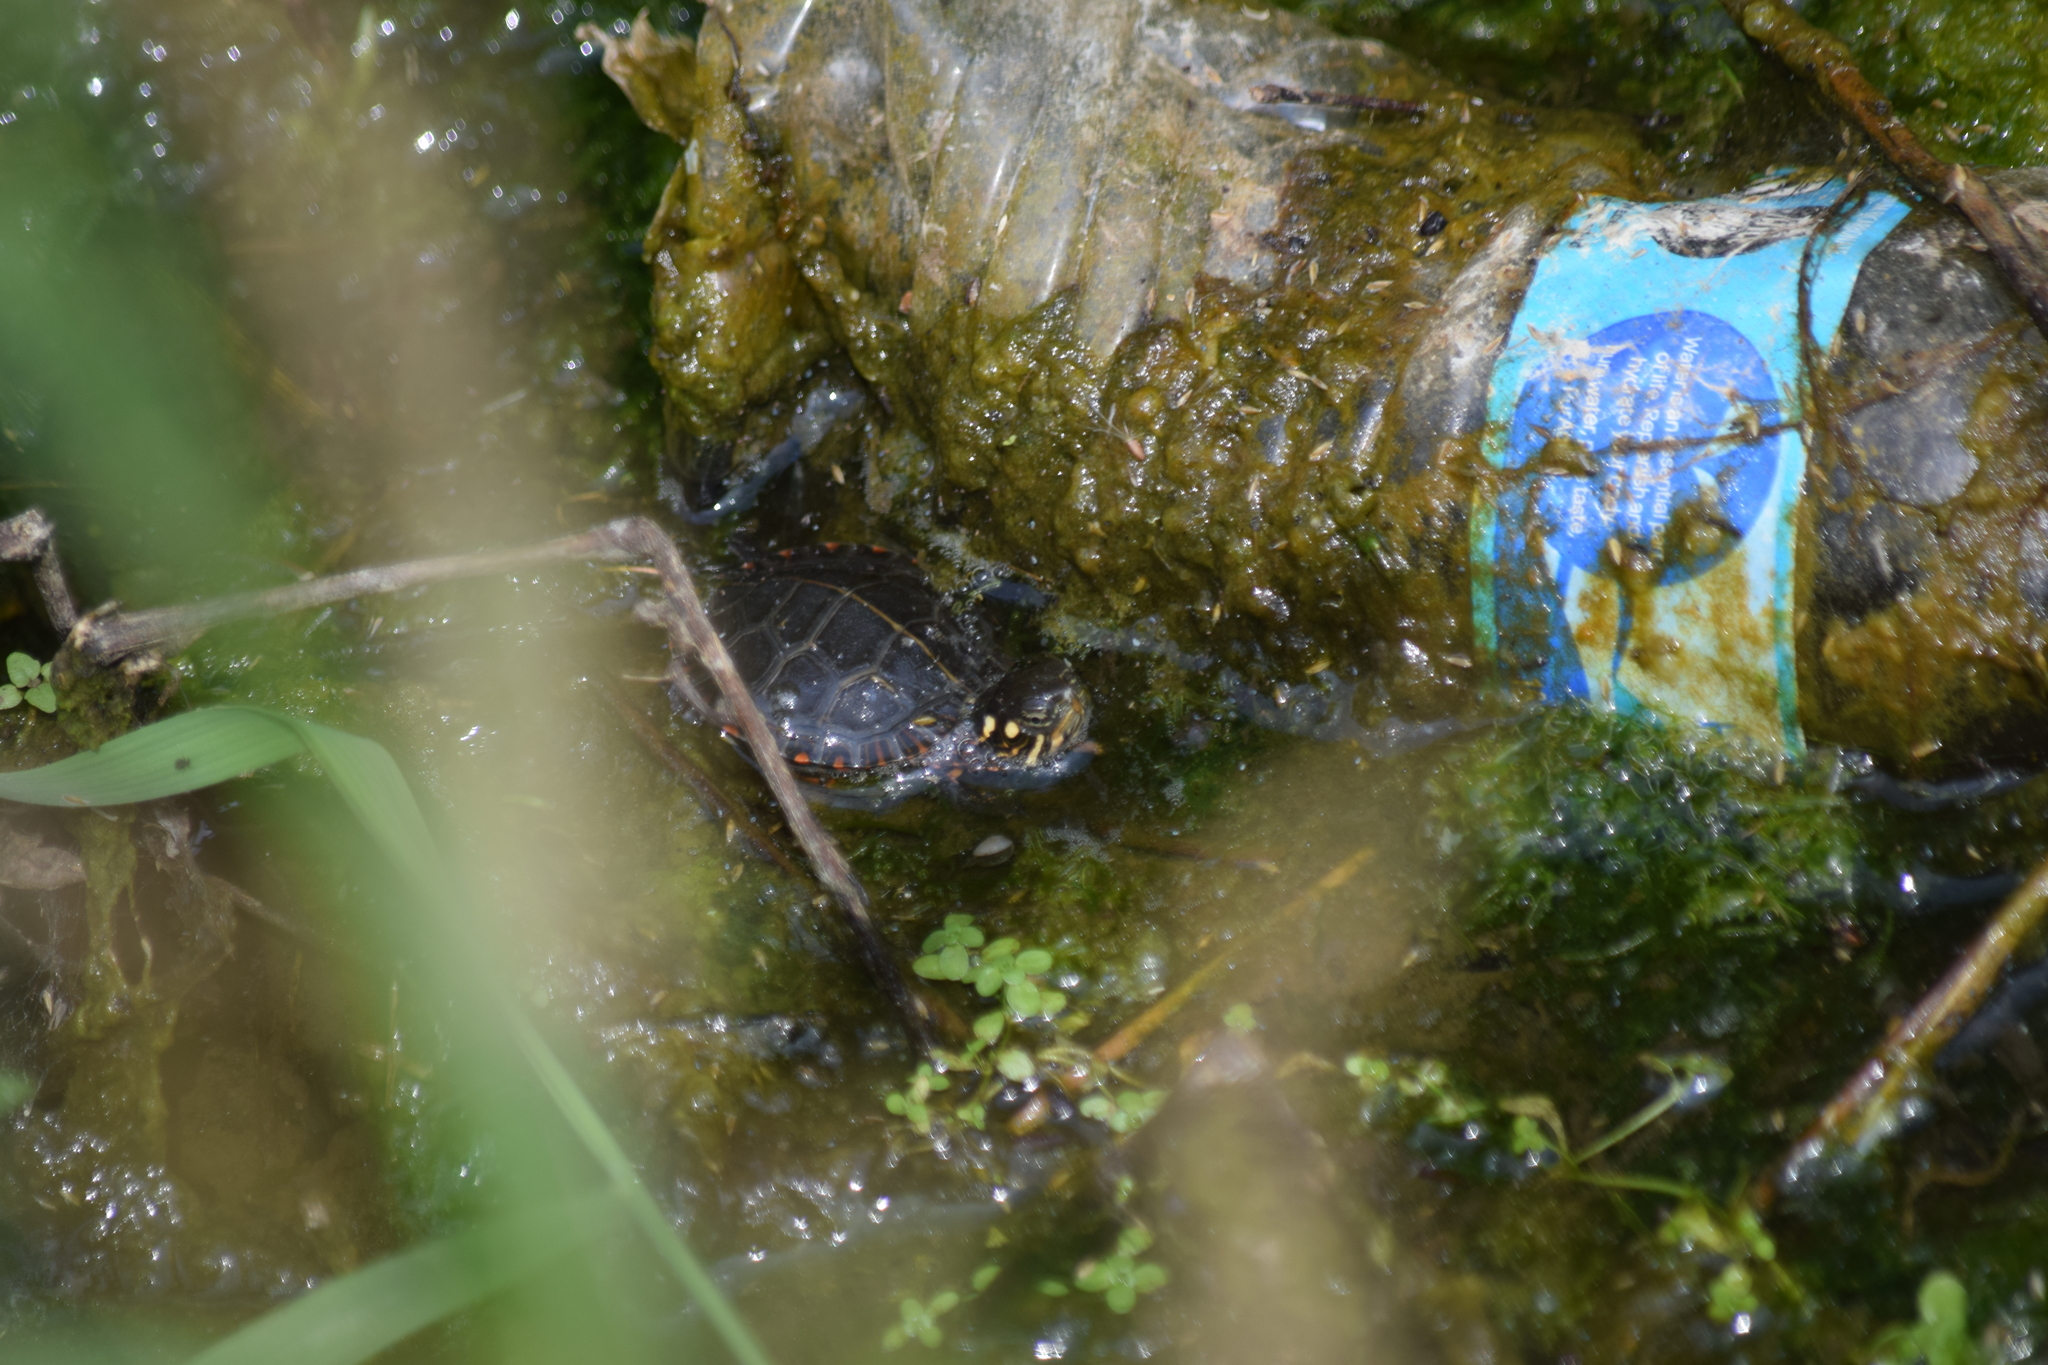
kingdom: Animalia
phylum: Chordata
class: Testudines
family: Emydidae
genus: Chrysemys
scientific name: Chrysemys picta
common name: Painted turtle
